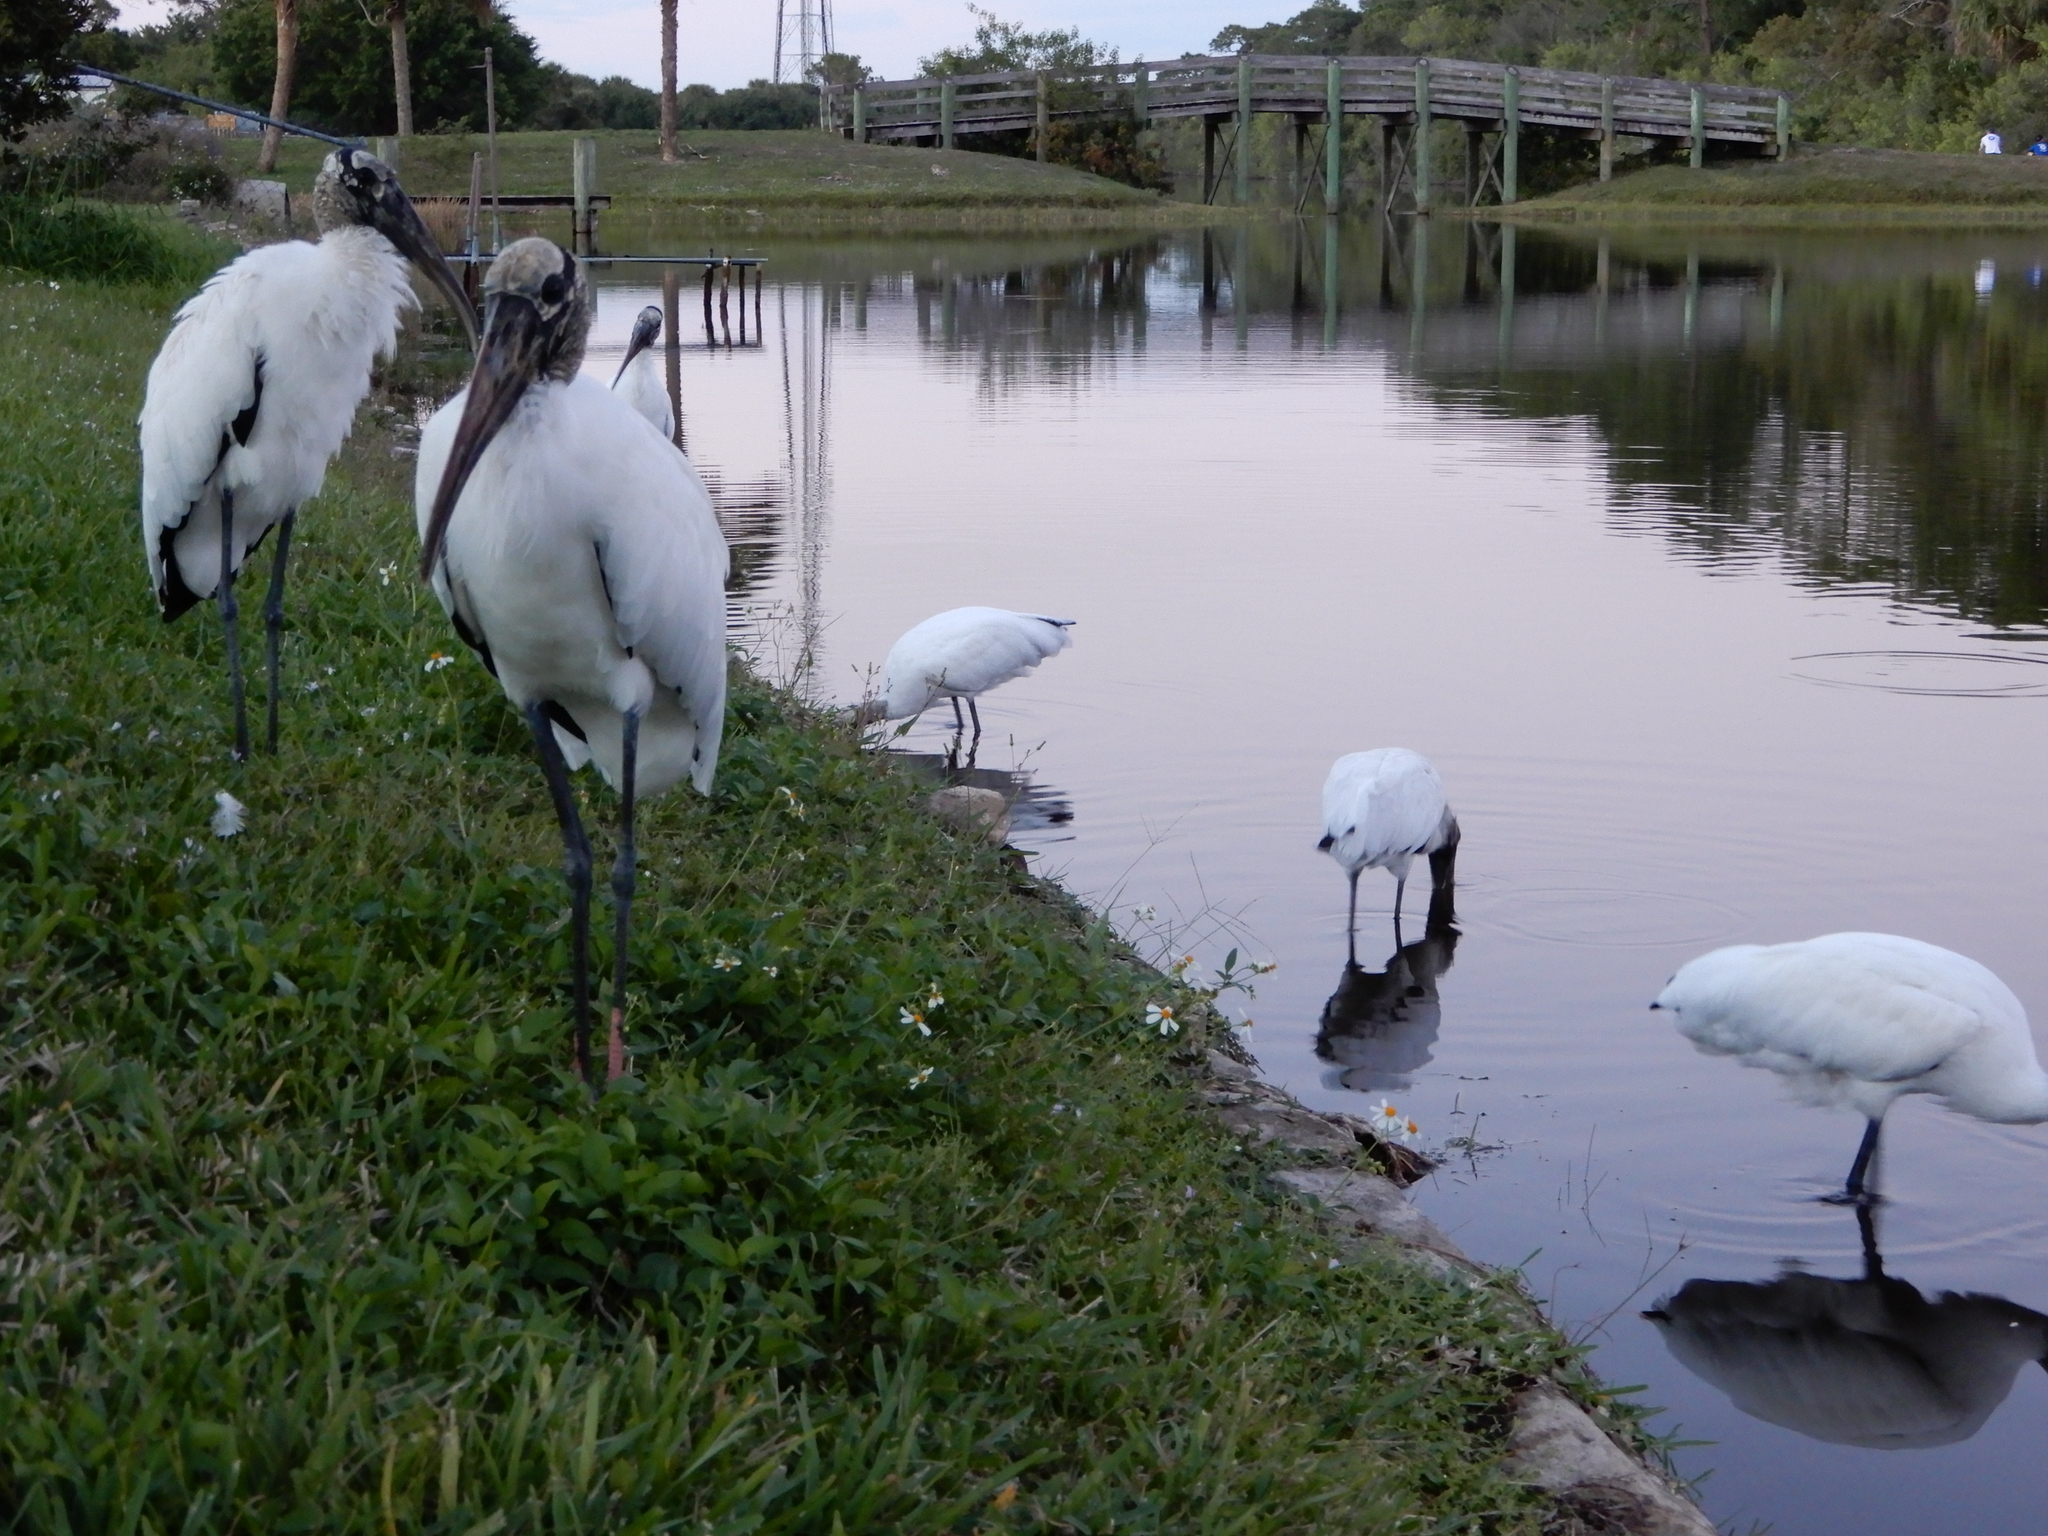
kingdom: Animalia
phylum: Chordata
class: Aves
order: Ciconiiformes
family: Ciconiidae
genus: Mycteria
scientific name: Mycteria americana
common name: Wood stork
